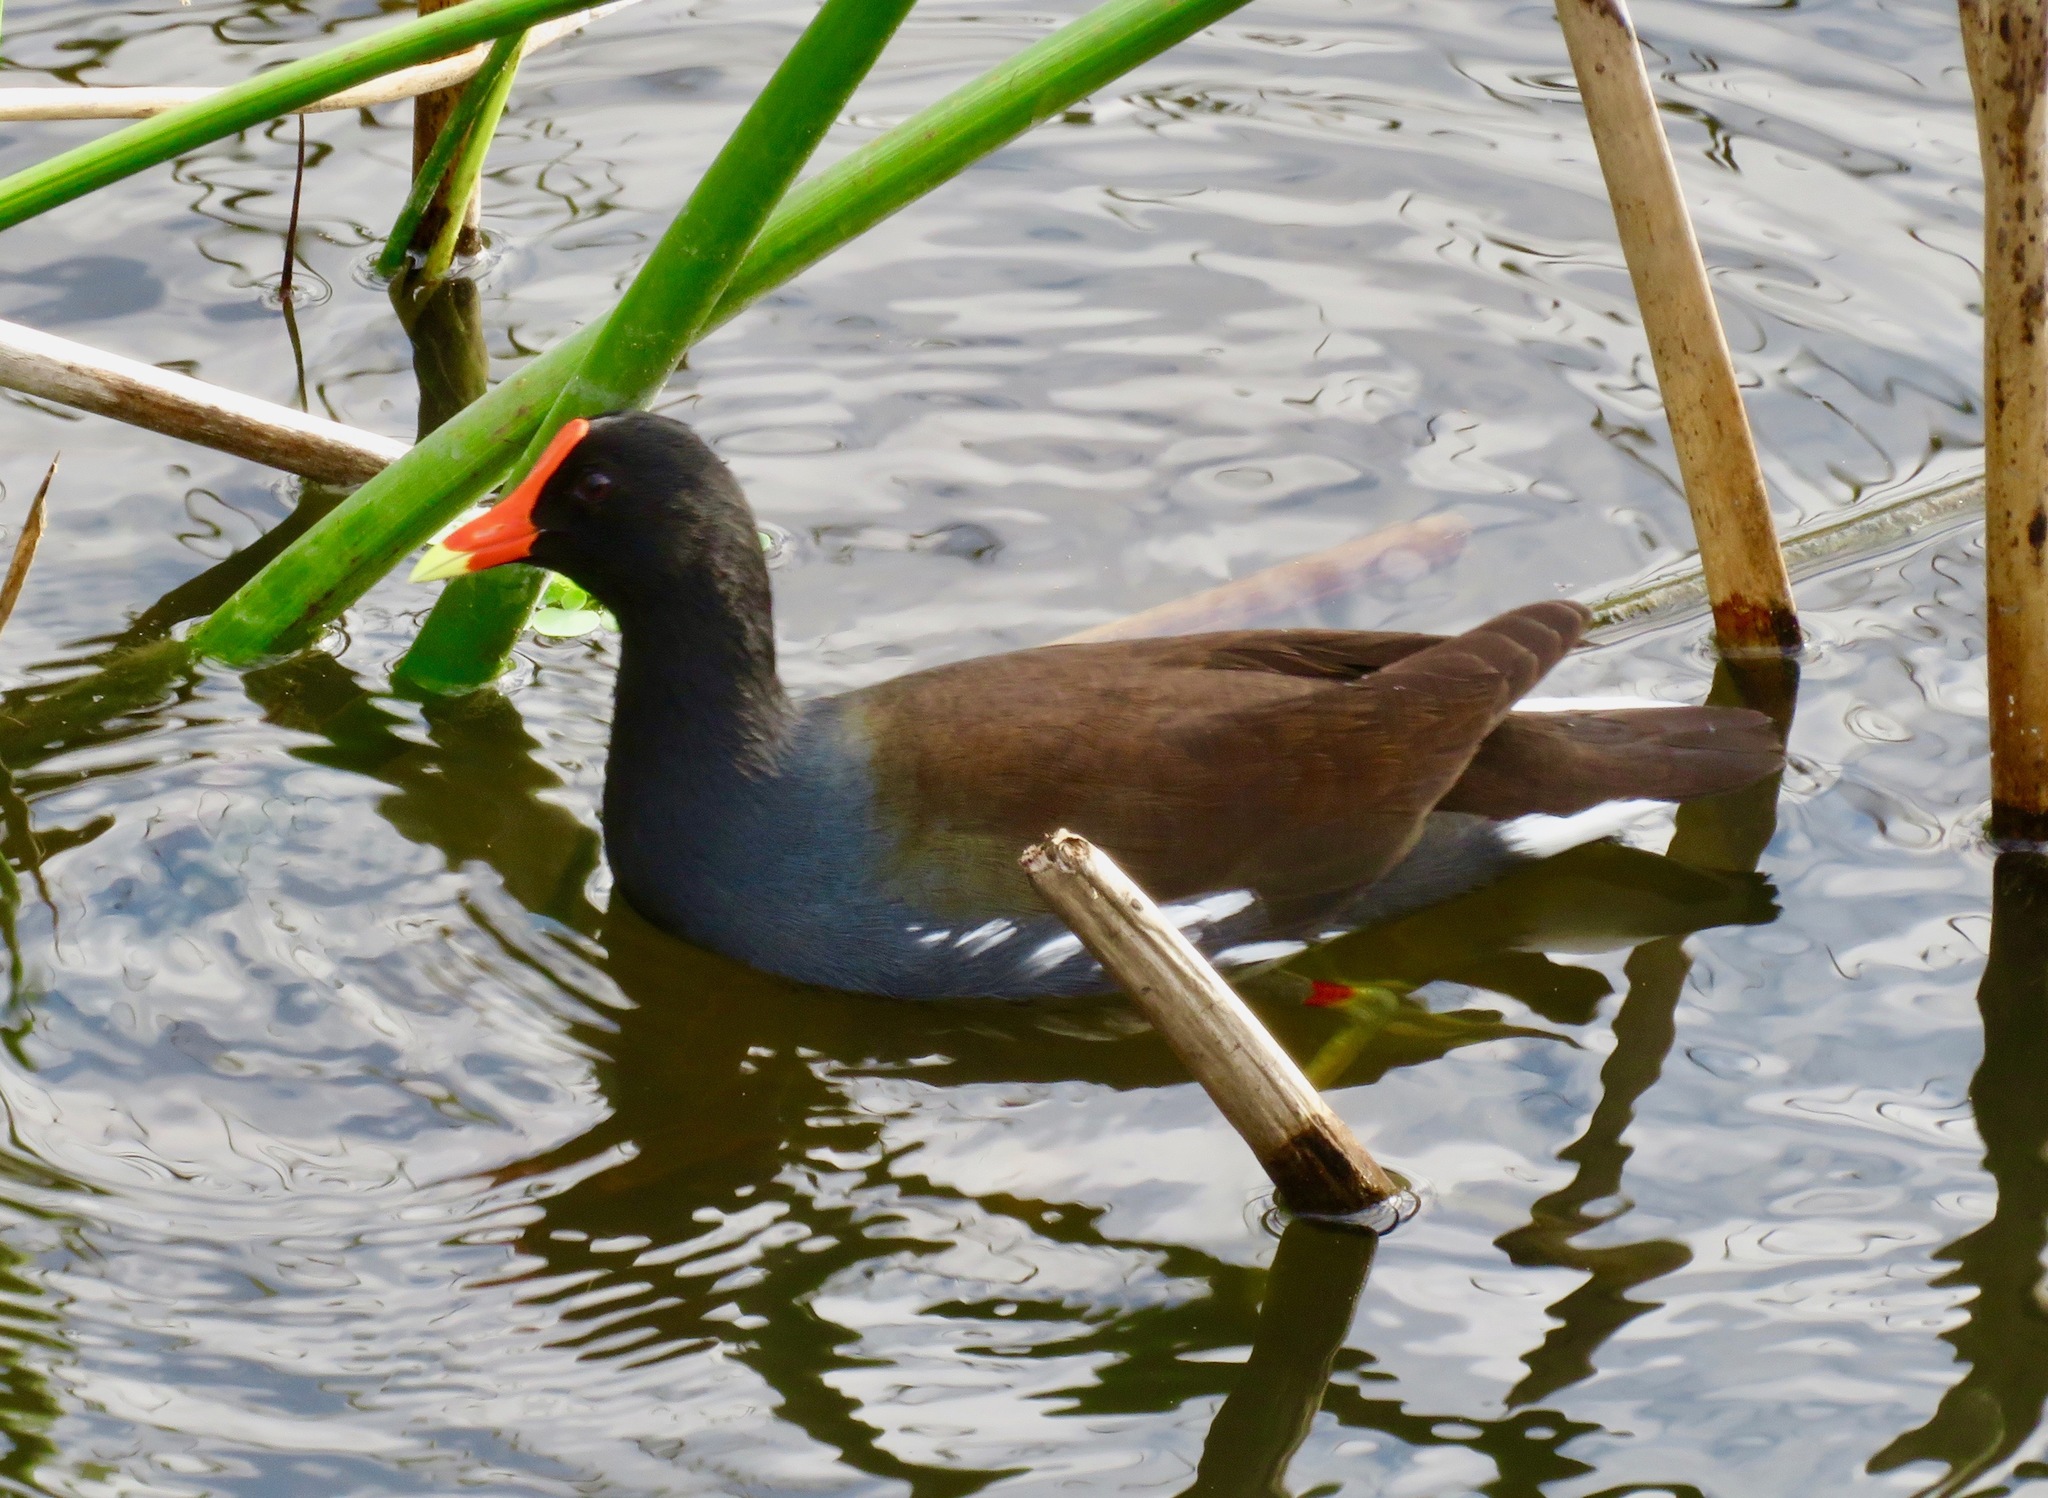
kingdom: Animalia
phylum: Chordata
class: Aves
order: Gruiformes
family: Rallidae
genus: Gallinula
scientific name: Gallinula chloropus
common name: Common moorhen
